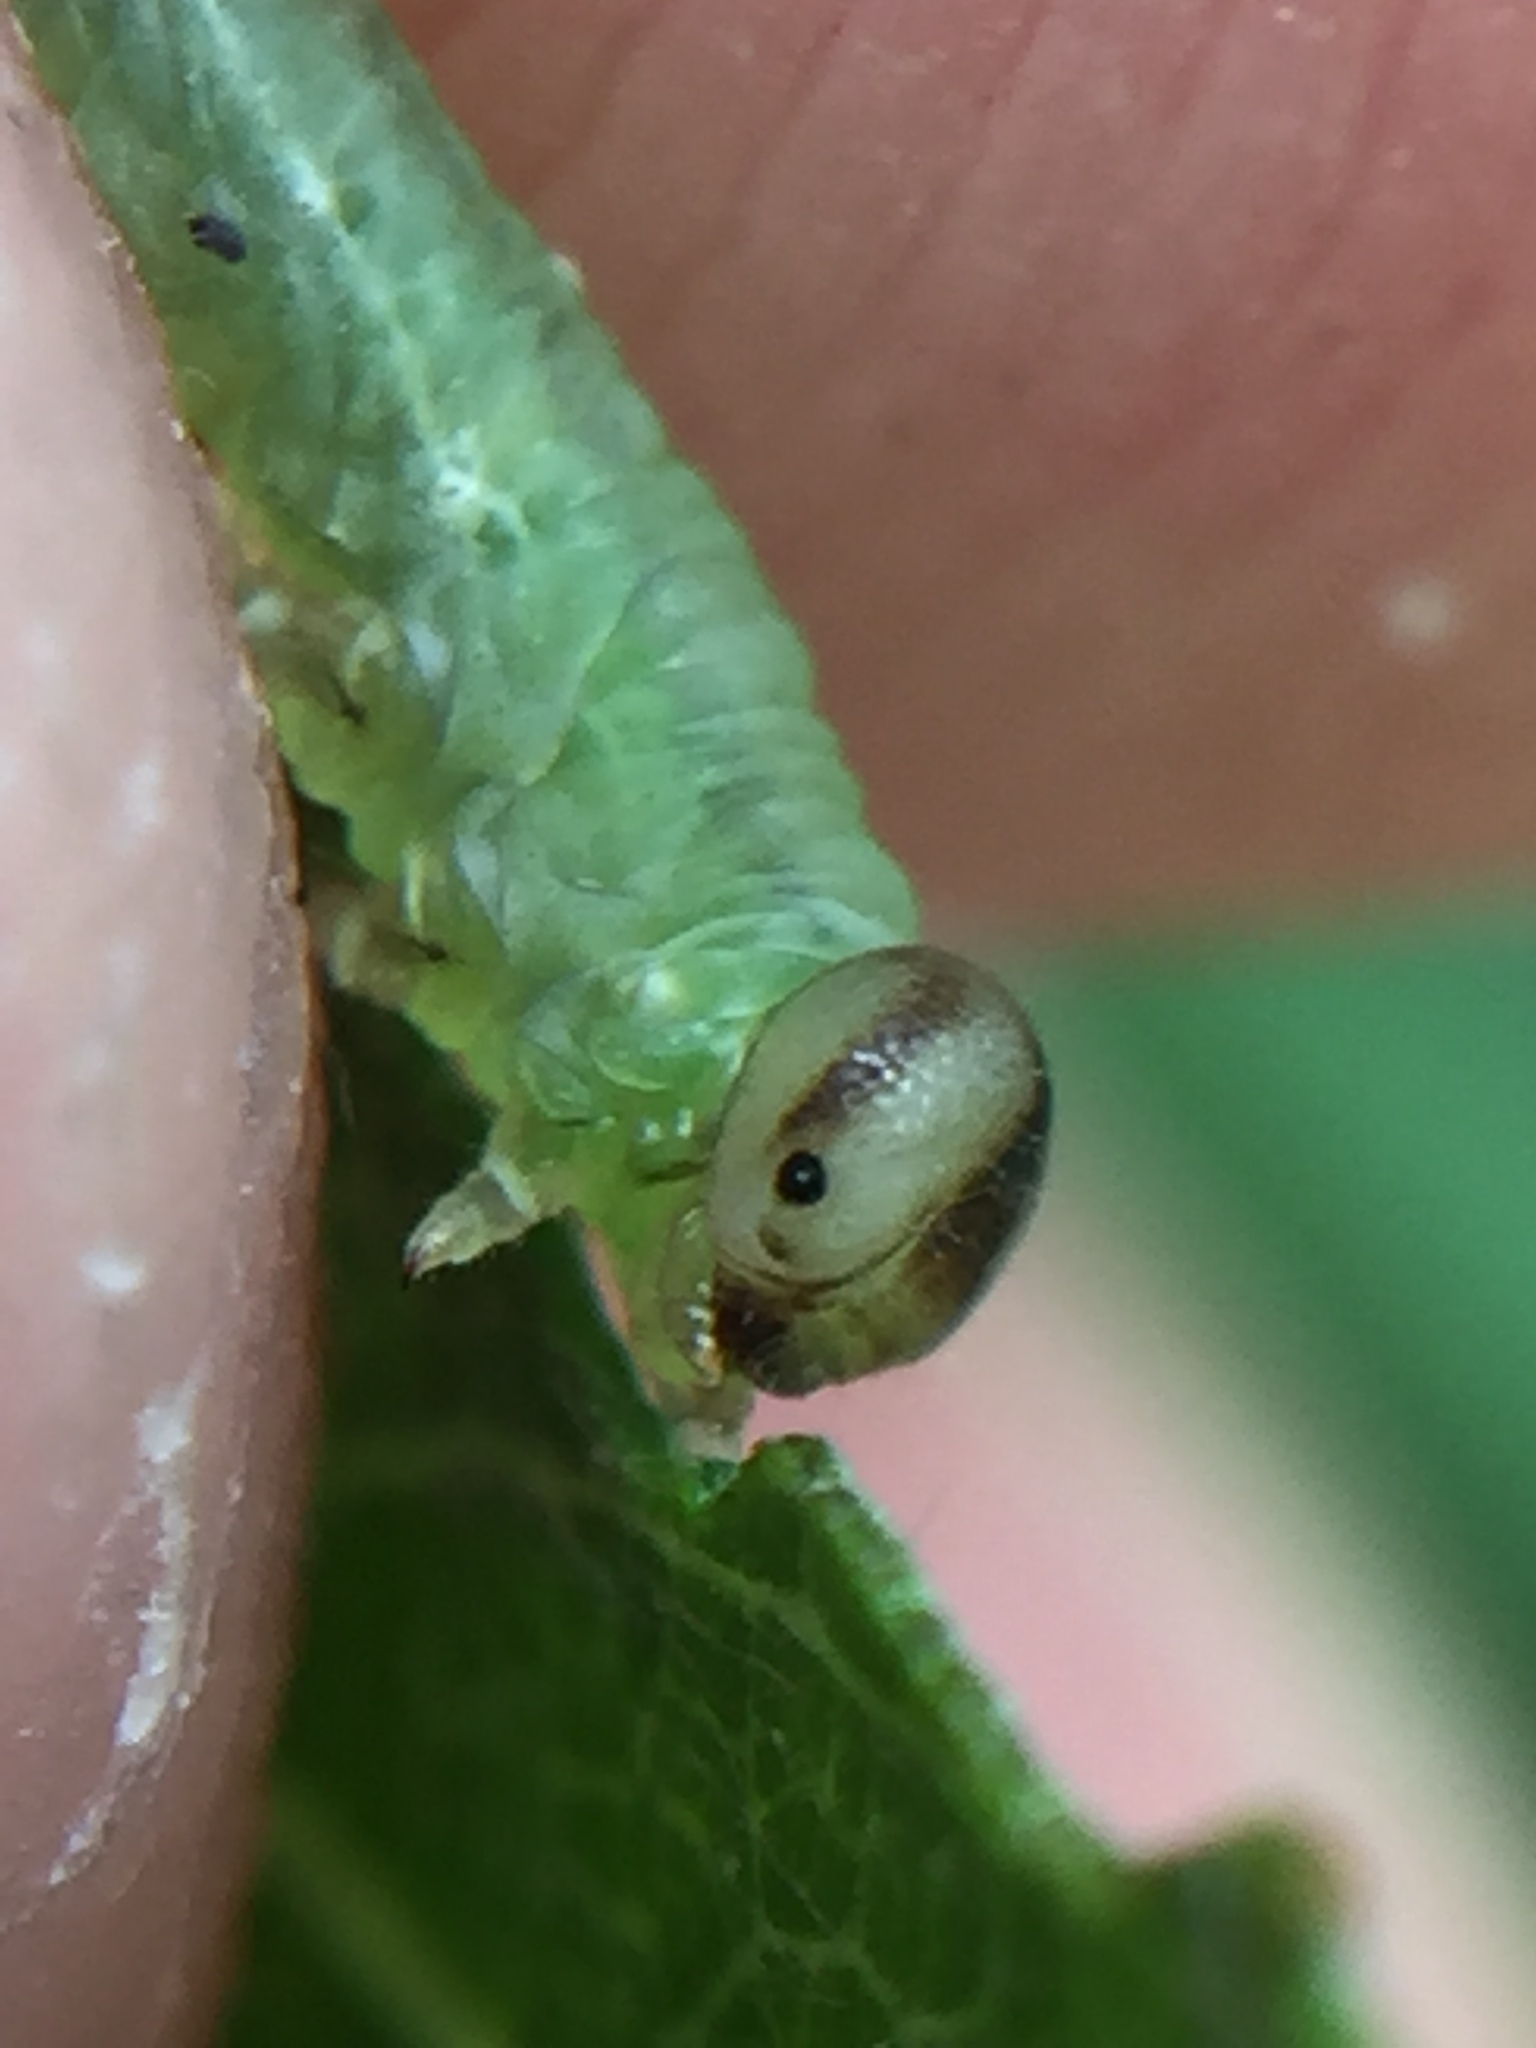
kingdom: Animalia
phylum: Arthropoda
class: Insecta
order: Hymenoptera
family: Tenthredinidae
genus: Nematus
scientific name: Nematus respondens
